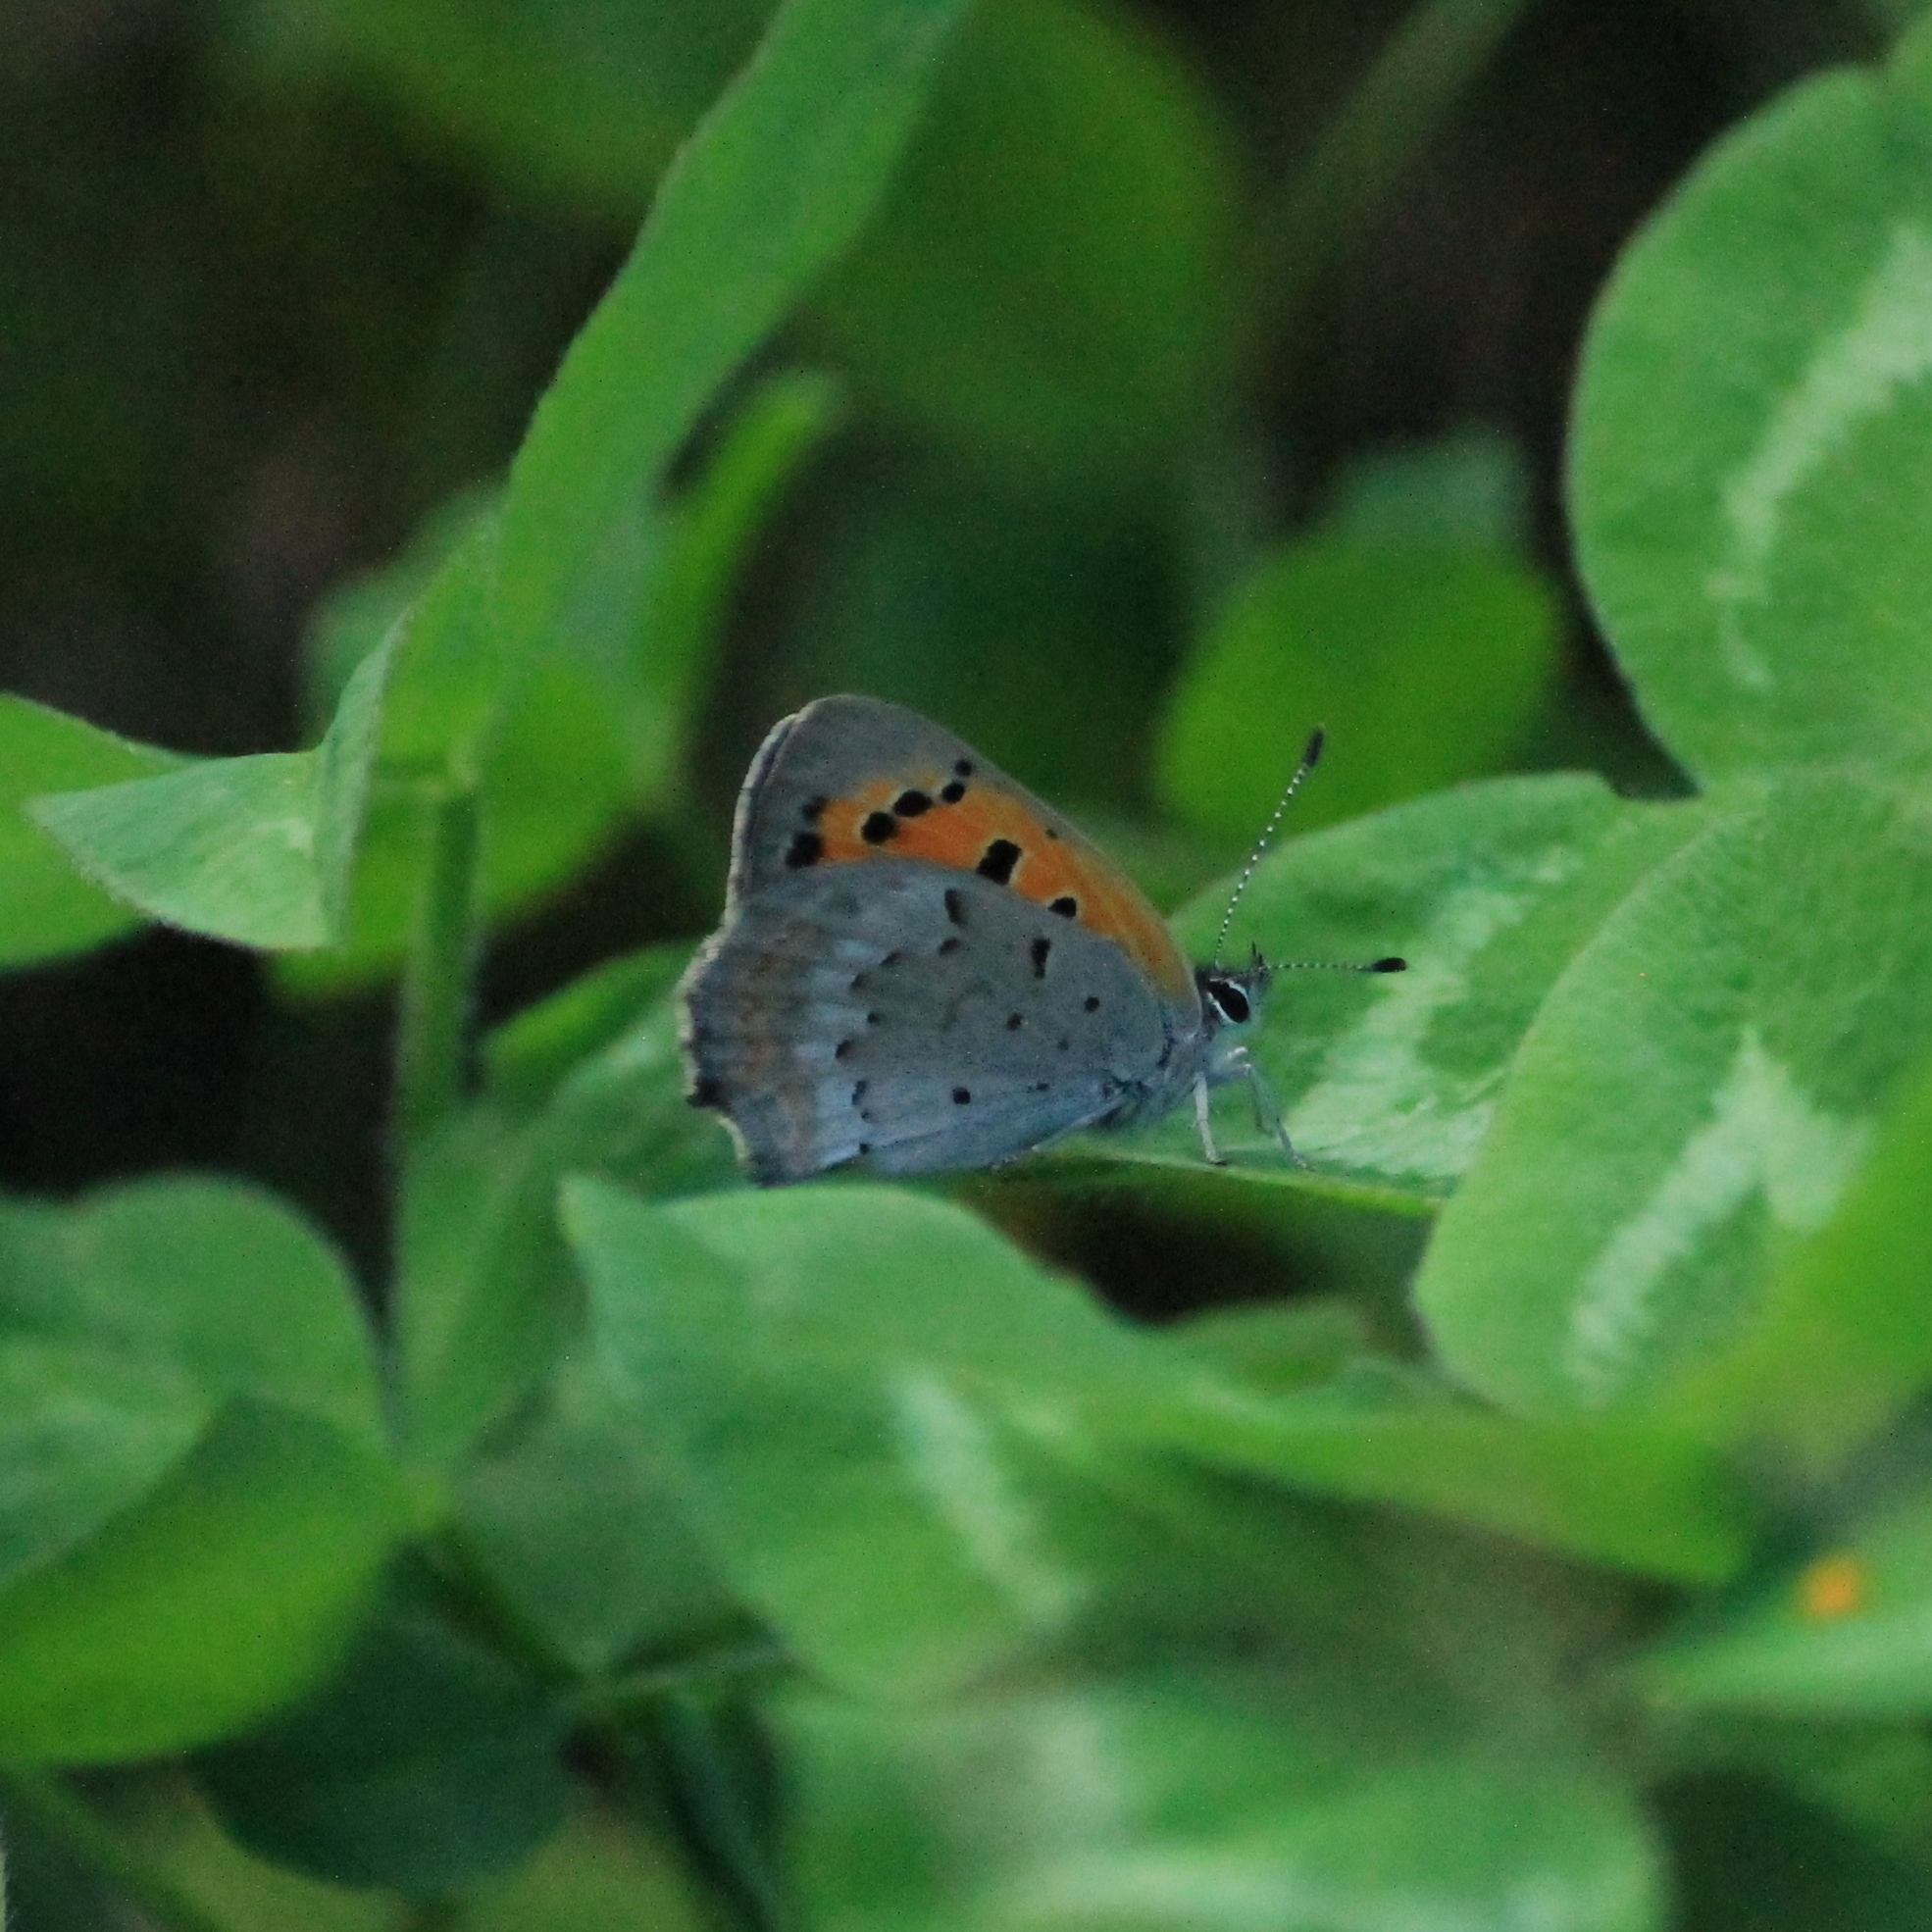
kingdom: Animalia
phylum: Arthropoda
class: Insecta
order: Lepidoptera
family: Lycaenidae
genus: Lycaena
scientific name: Lycaena phlaeas
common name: Small copper
